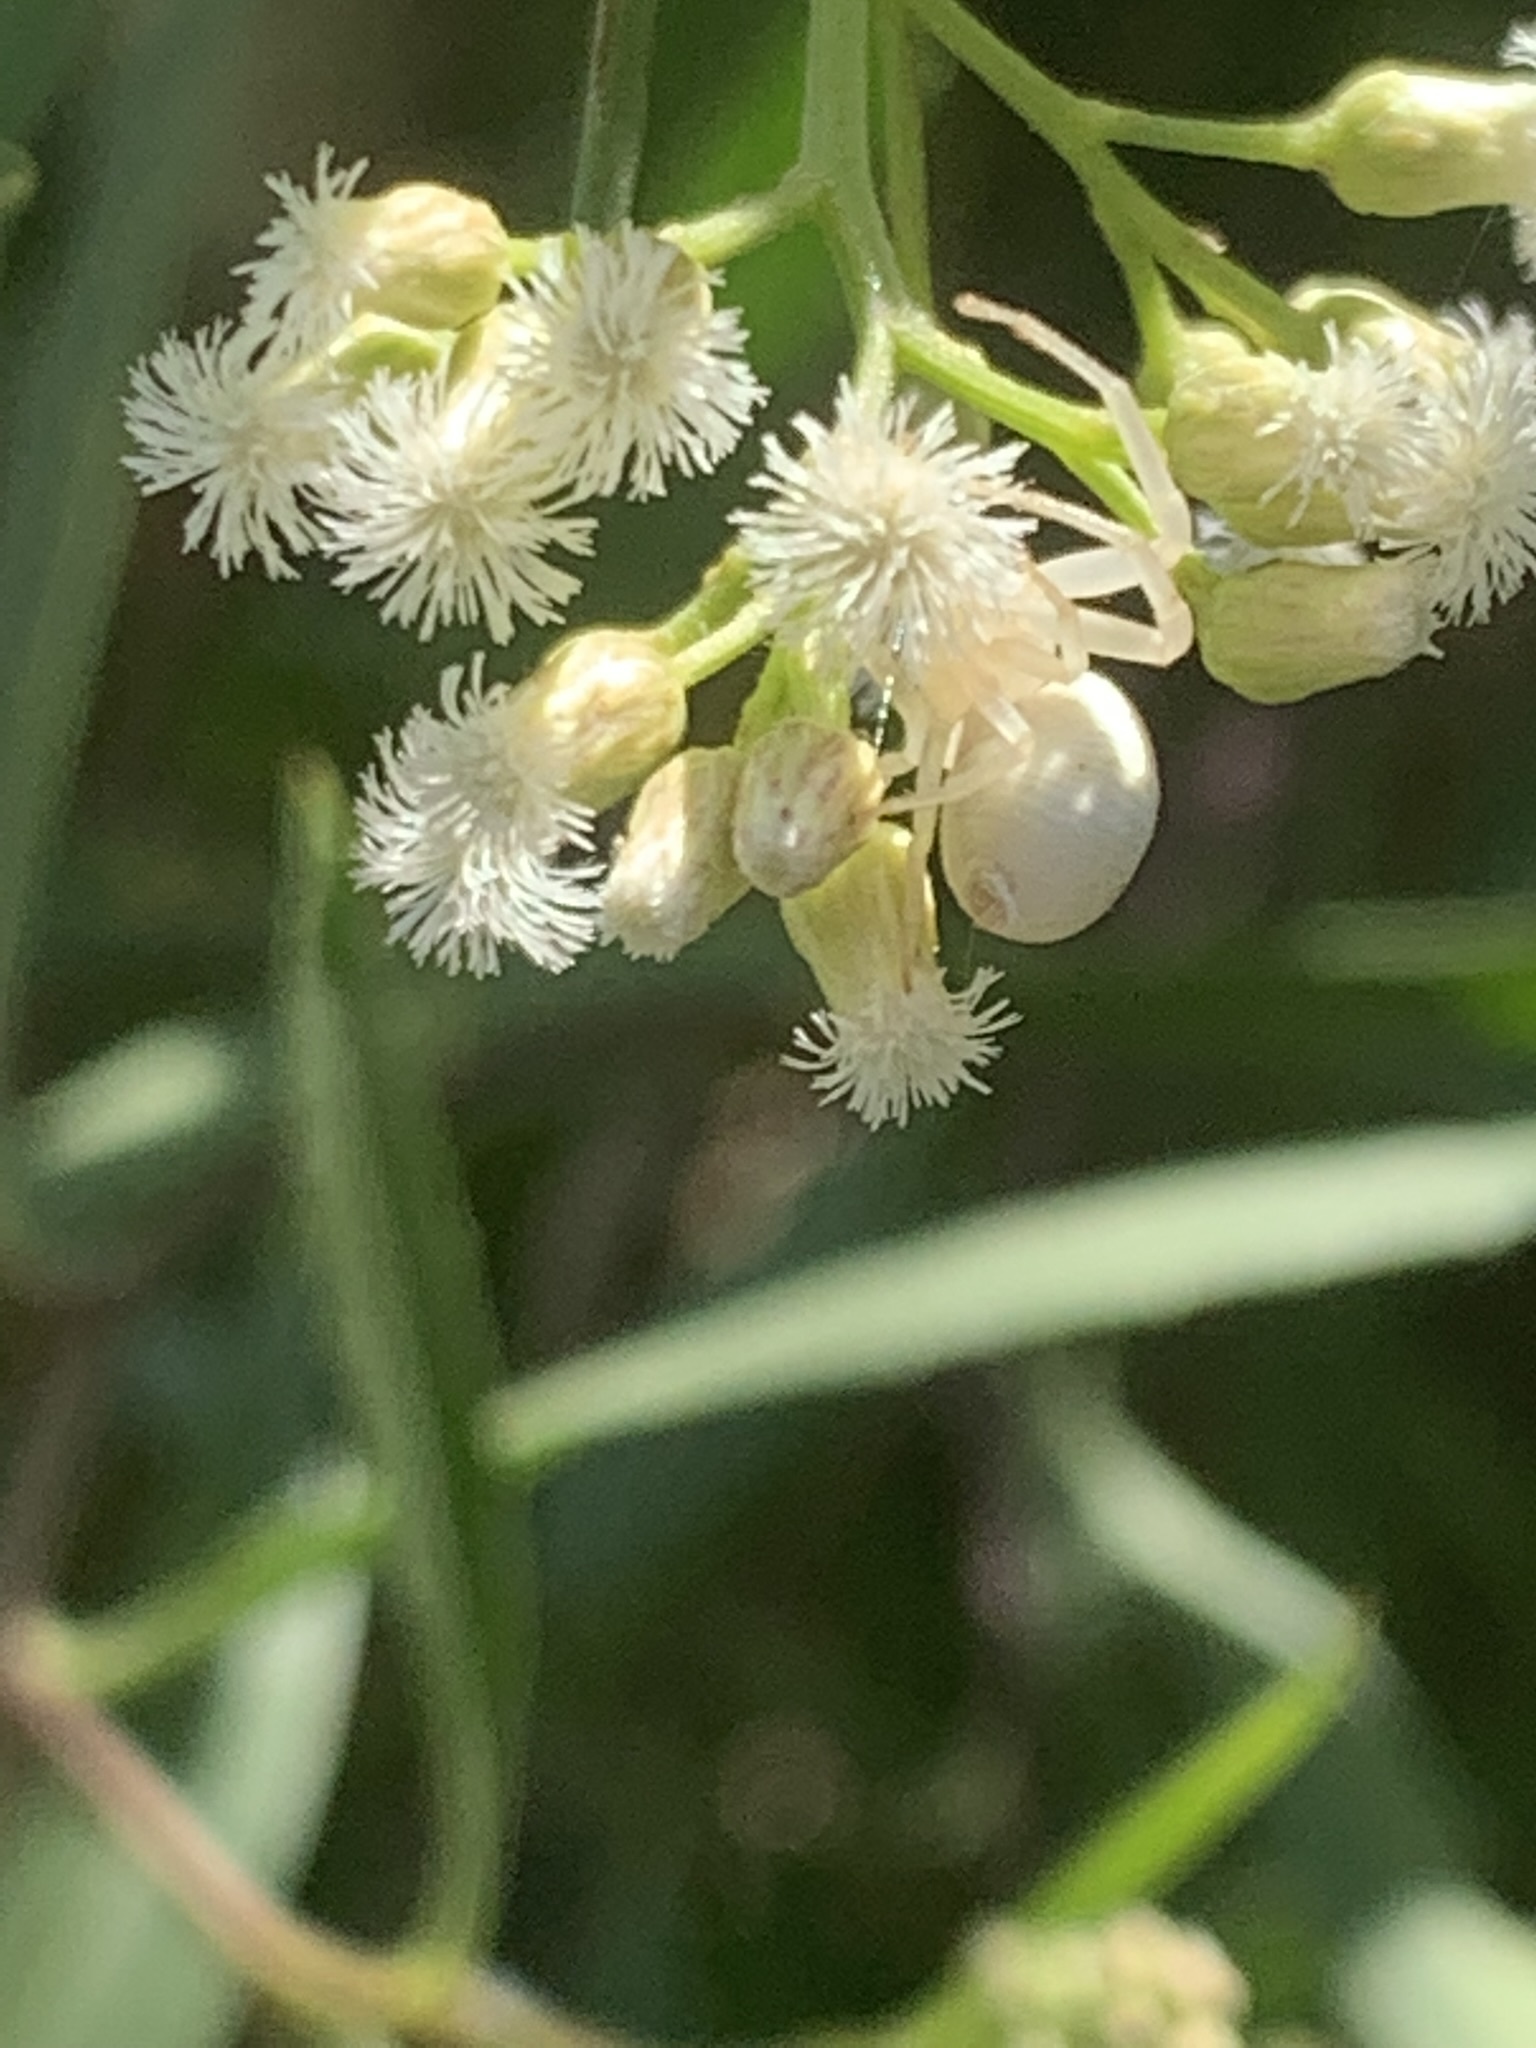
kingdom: Animalia
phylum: Arthropoda
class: Arachnida
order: Araneae
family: Thomisidae
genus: Misumenops
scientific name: Misumenops
